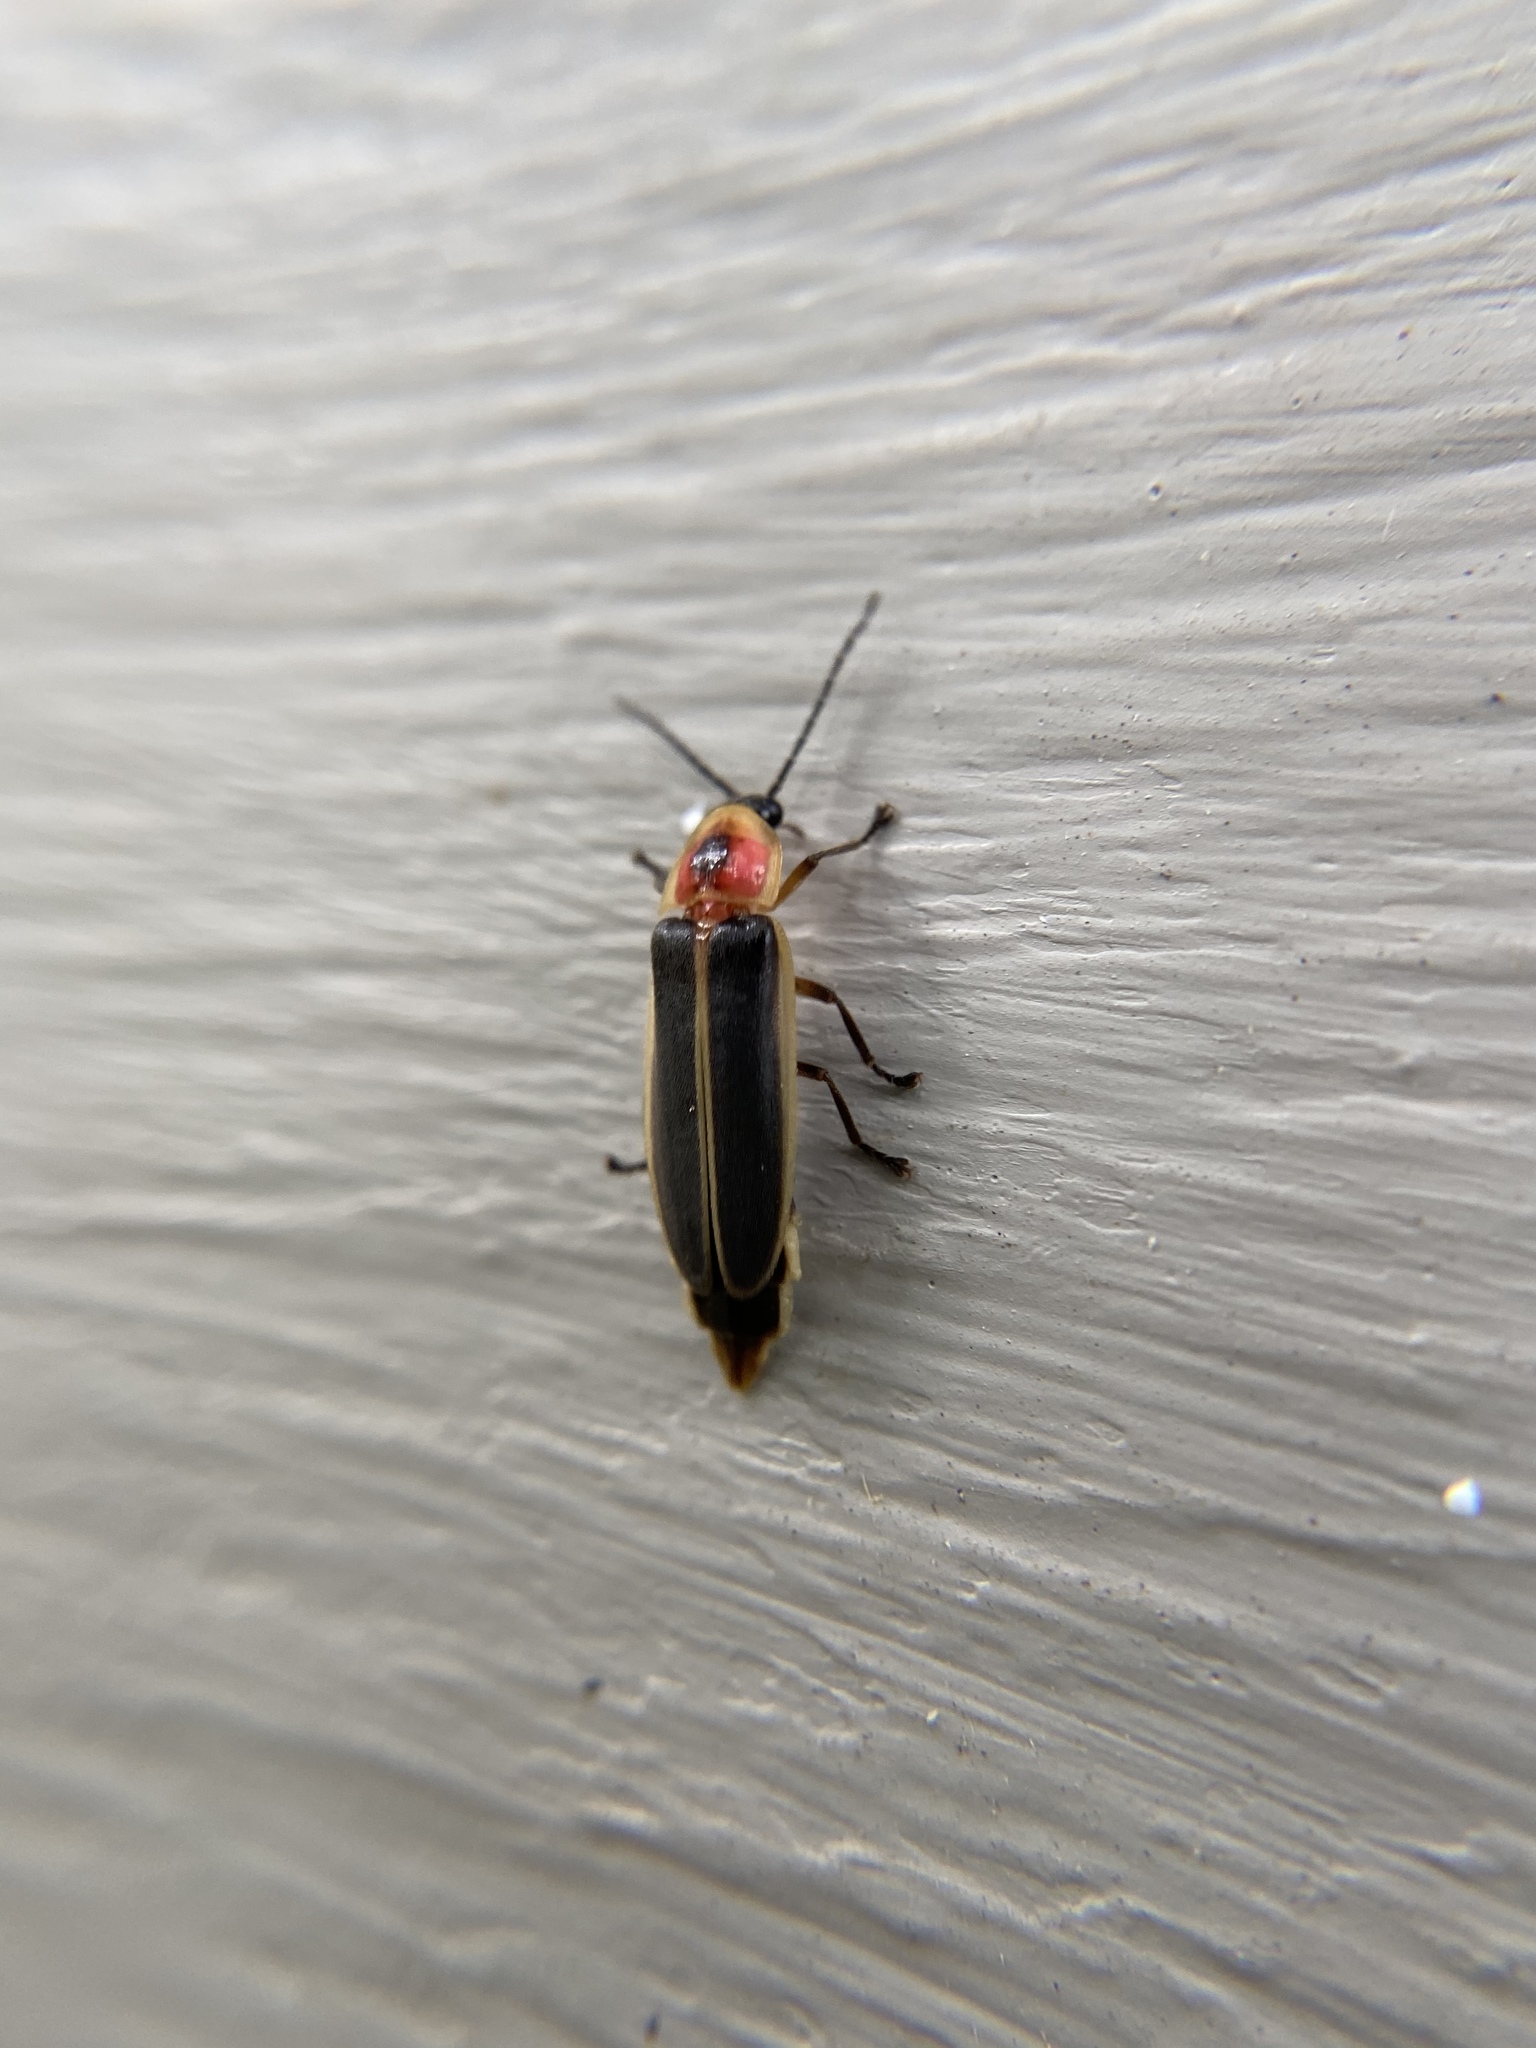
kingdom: Animalia
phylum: Arthropoda
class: Insecta
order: Coleoptera
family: Lampyridae
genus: Photinus
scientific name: Photinus pyralis
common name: Big dipper firefly
